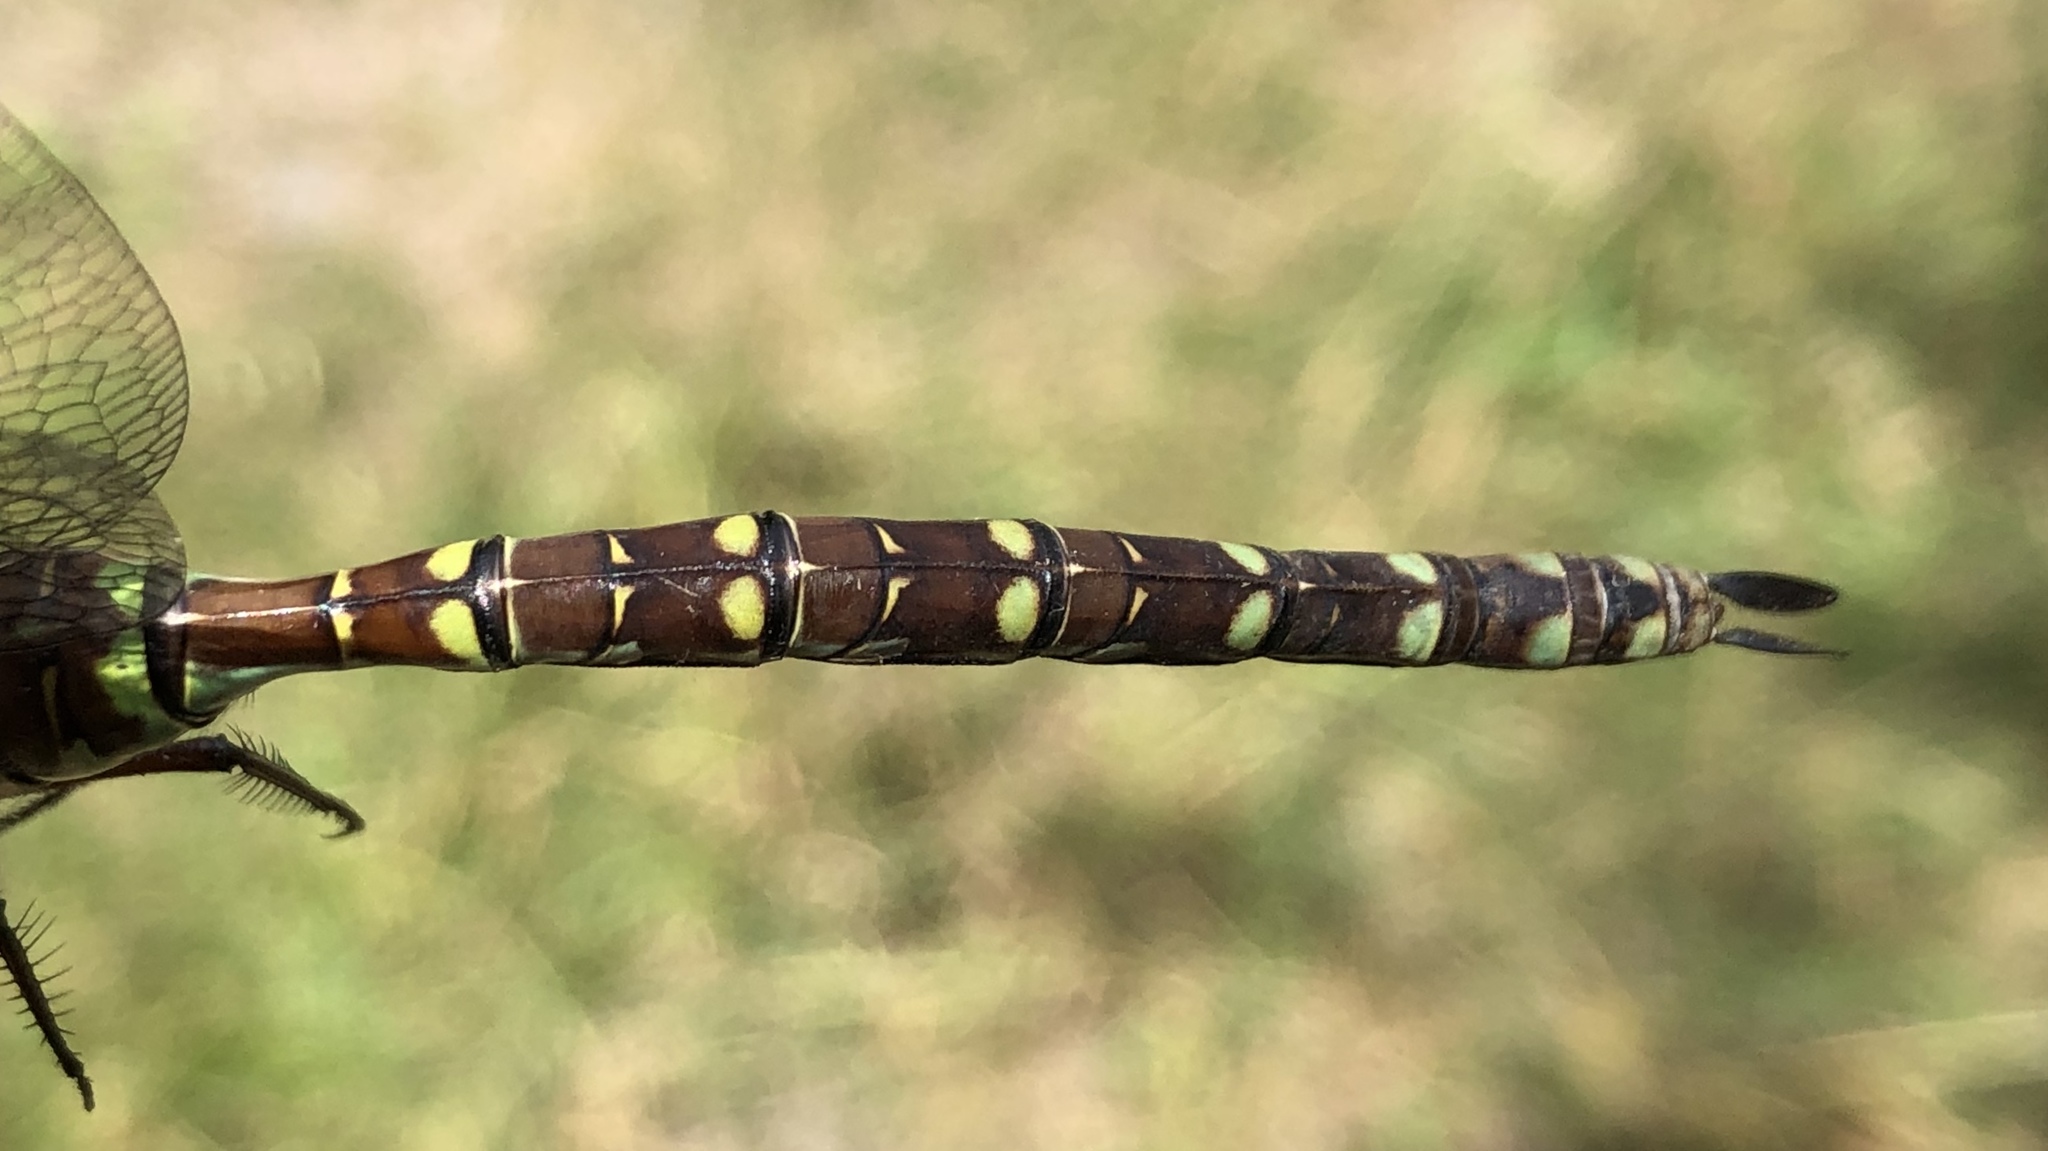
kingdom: Animalia
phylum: Arthropoda
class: Insecta
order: Odonata
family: Aeshnidae
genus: Aeshna
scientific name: Aeshna canadensis
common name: Canada darner
